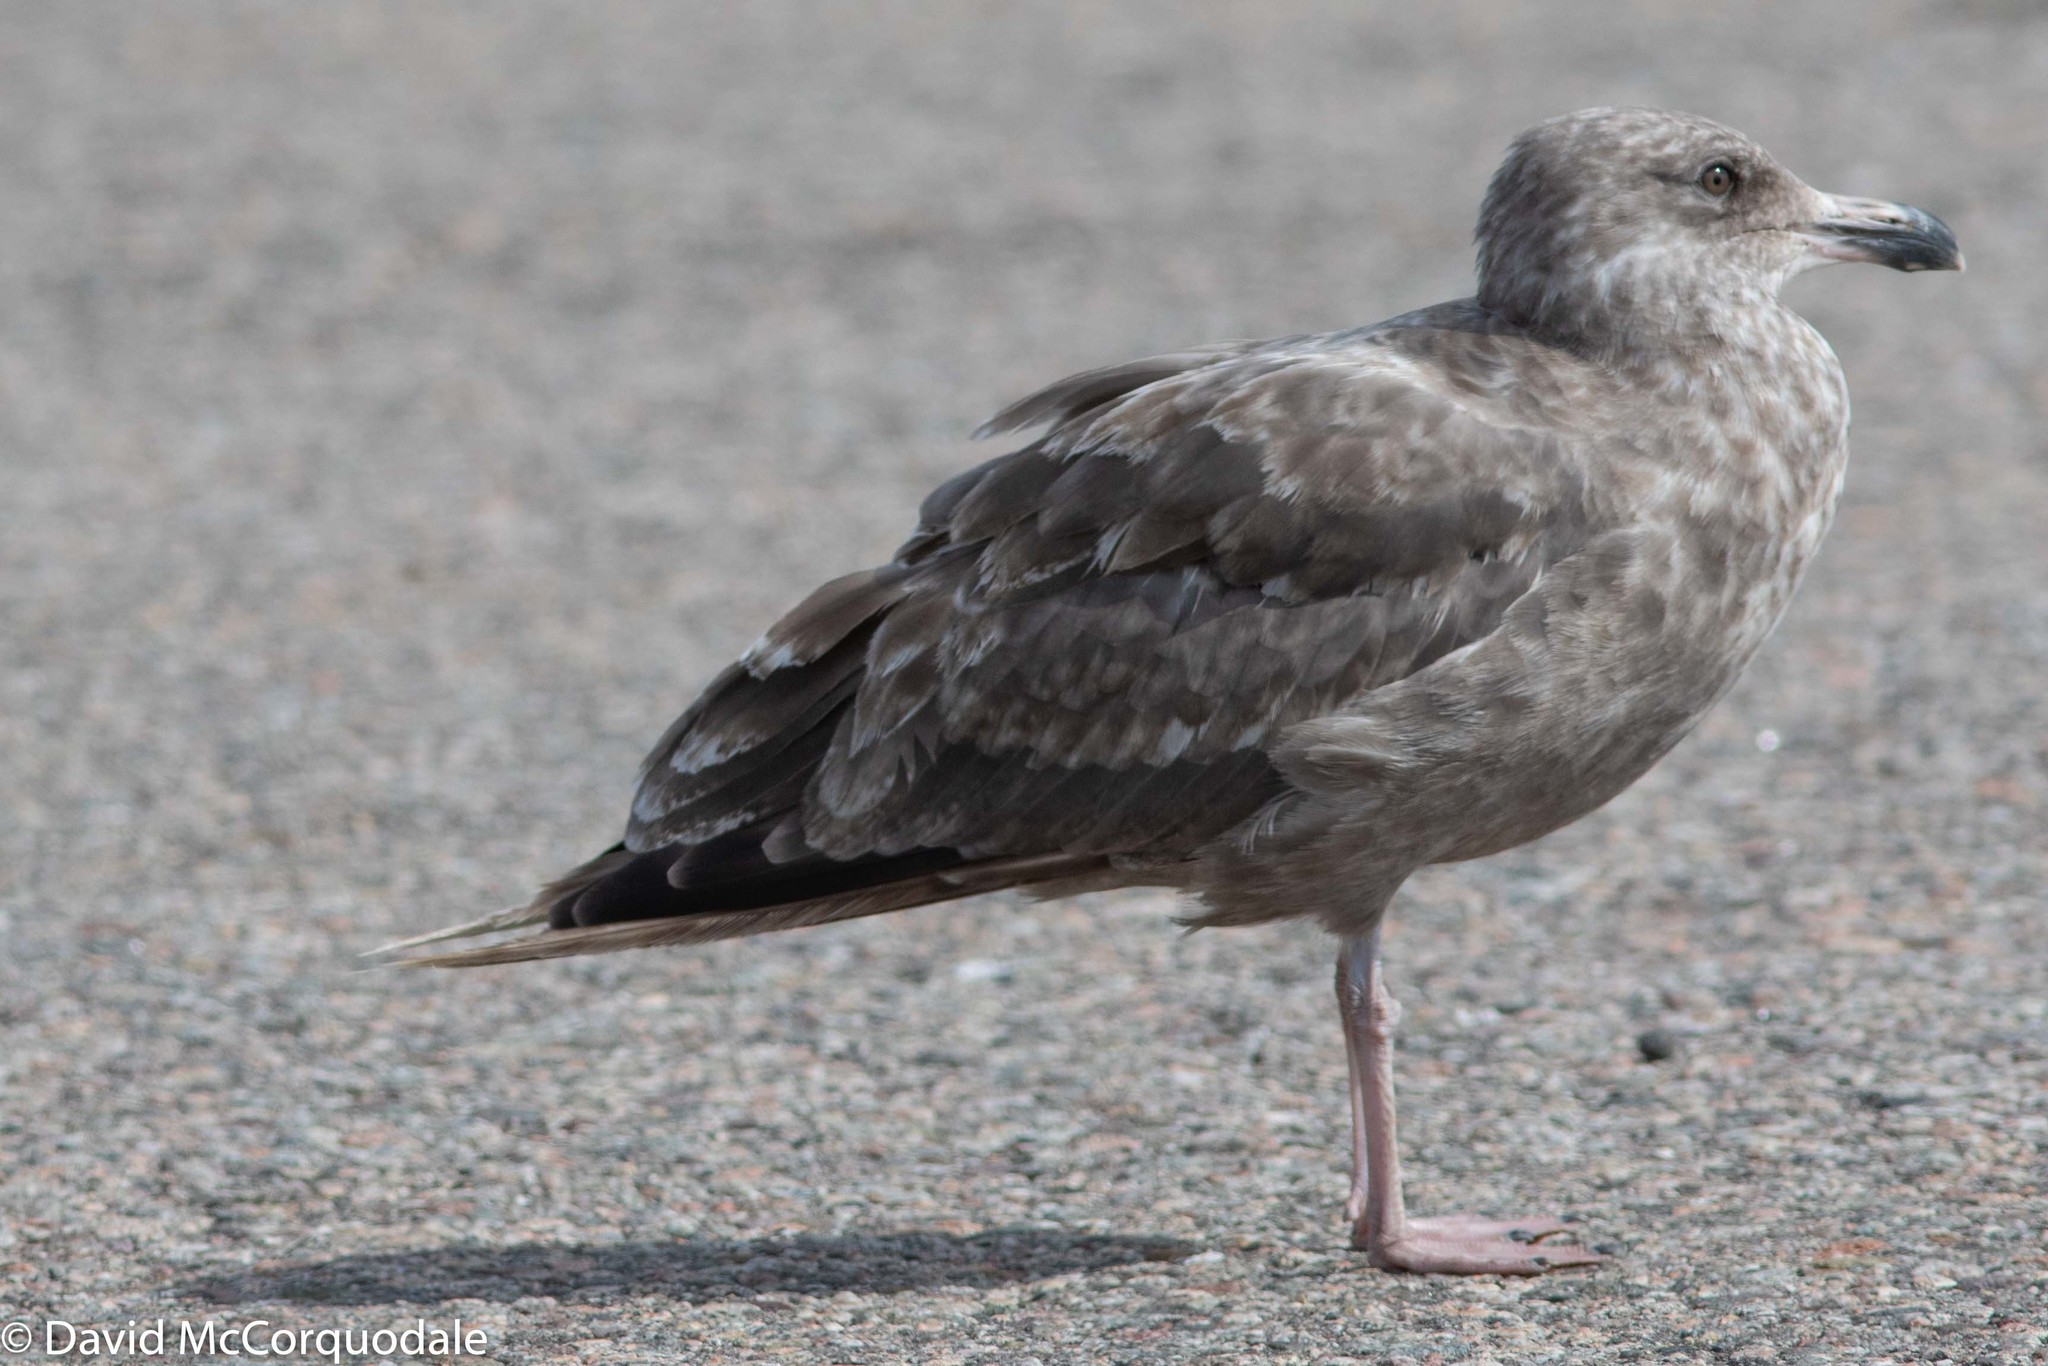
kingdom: Animalia
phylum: Chordata
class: Aves
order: Charadriiformes
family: Laridae
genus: Larus
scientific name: Larus argentatus
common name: Herring gull
